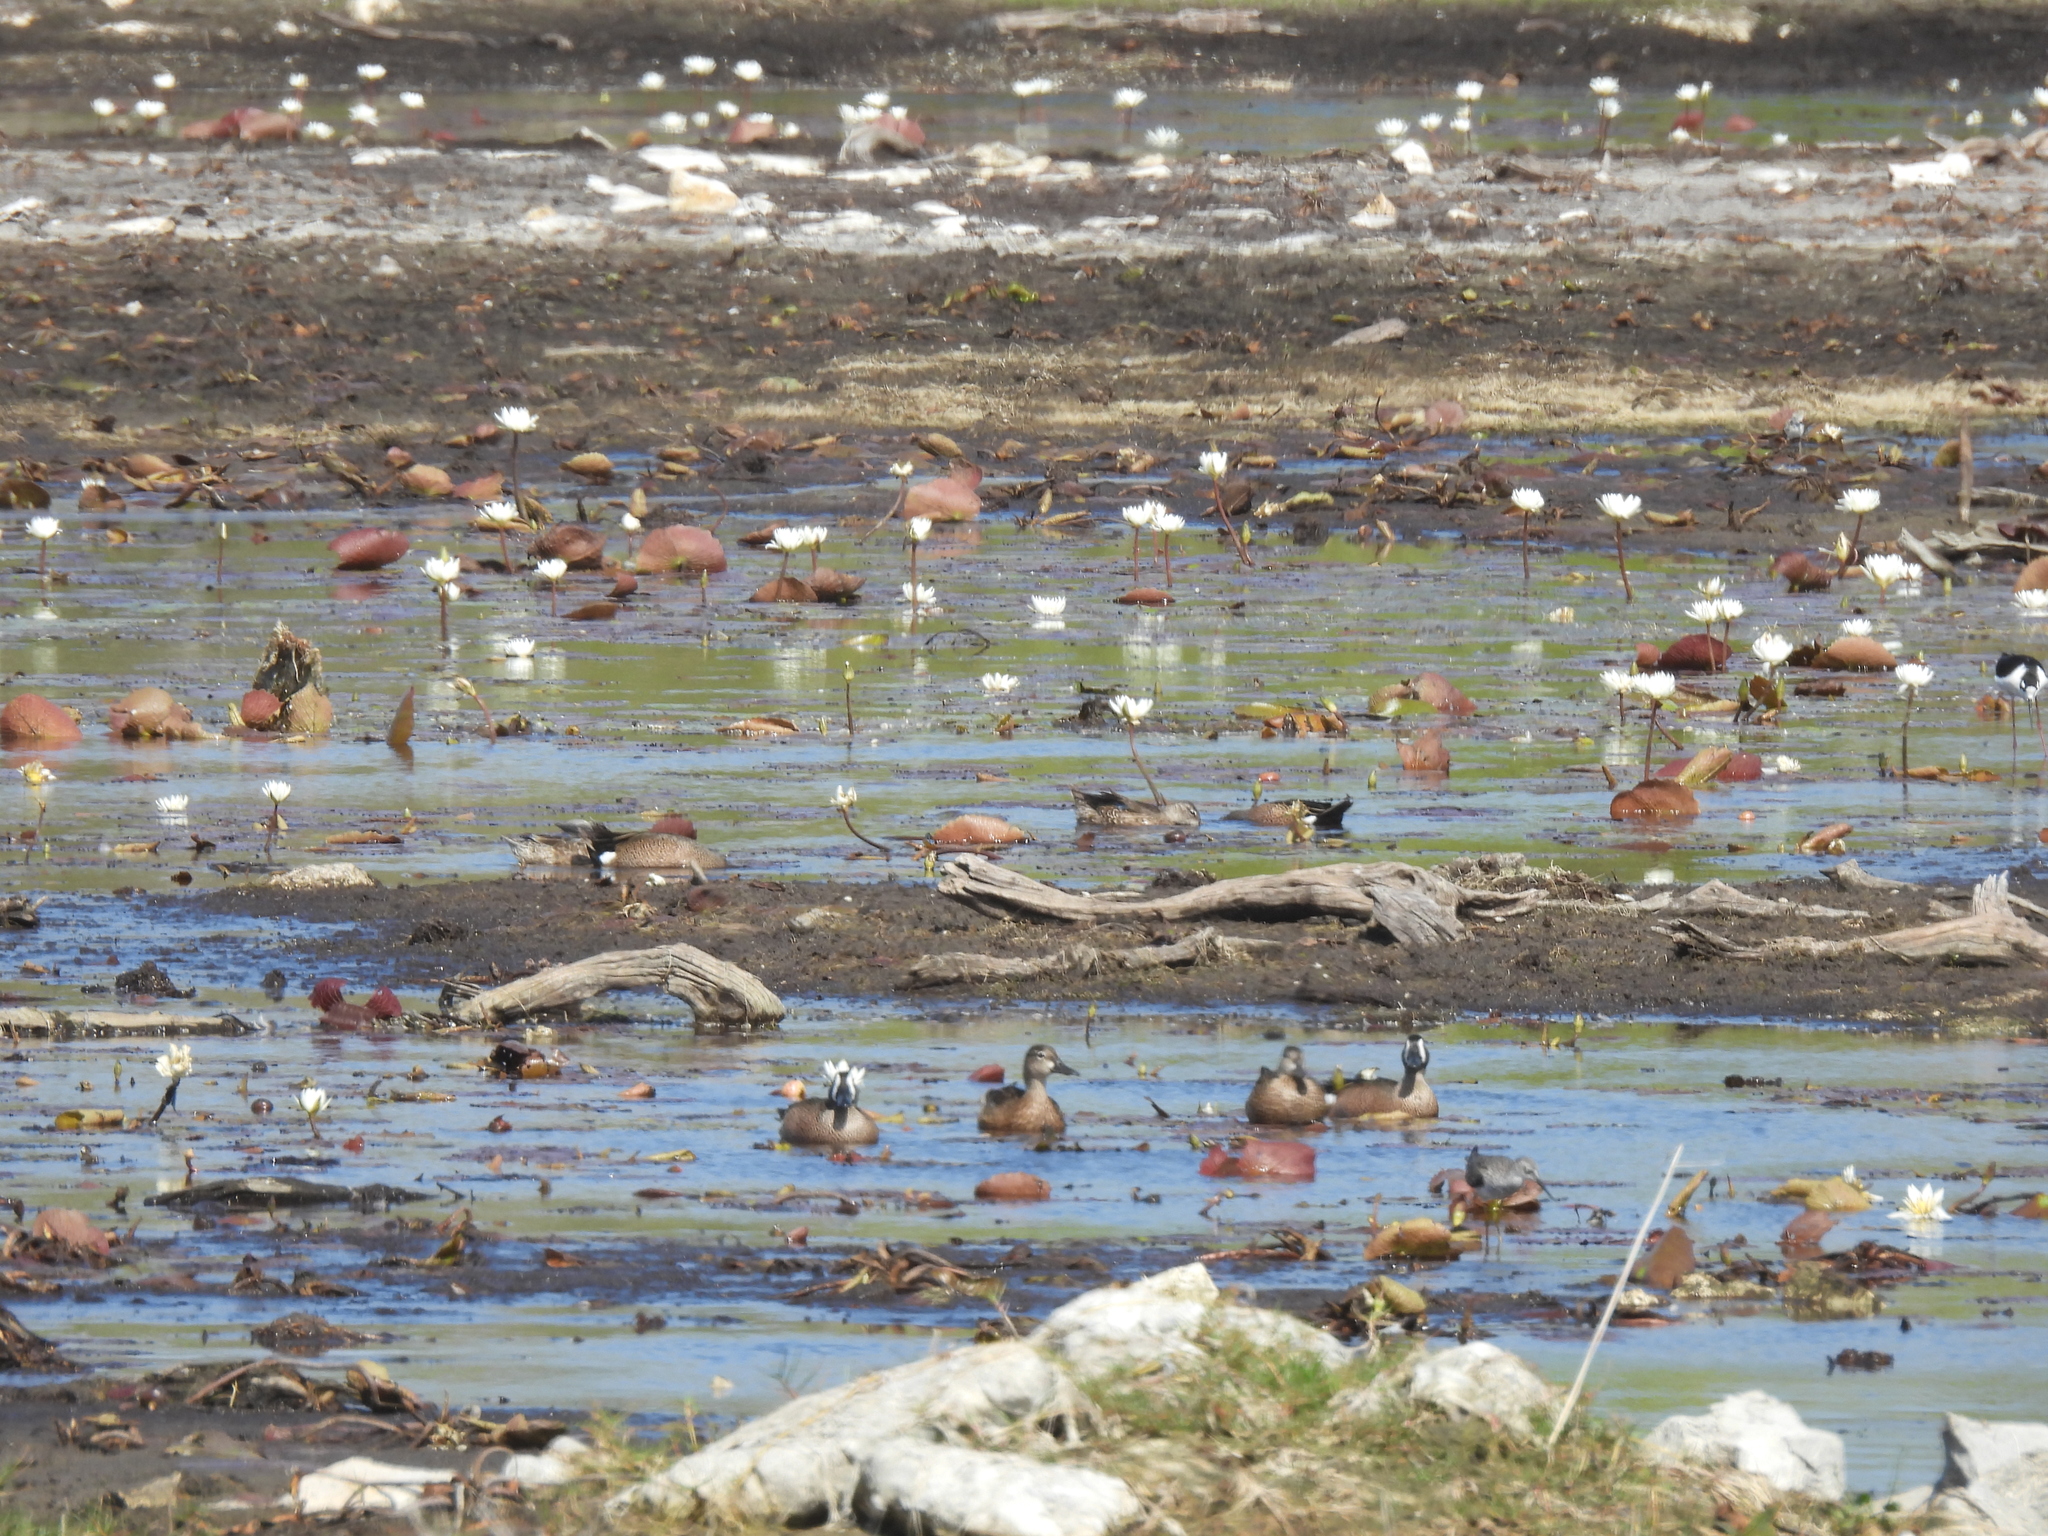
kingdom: Animalia
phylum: Chordata
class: Aves
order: Anseriformes
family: Anatidae
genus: Spatula
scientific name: Spatula discors
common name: Blue-winged teal
